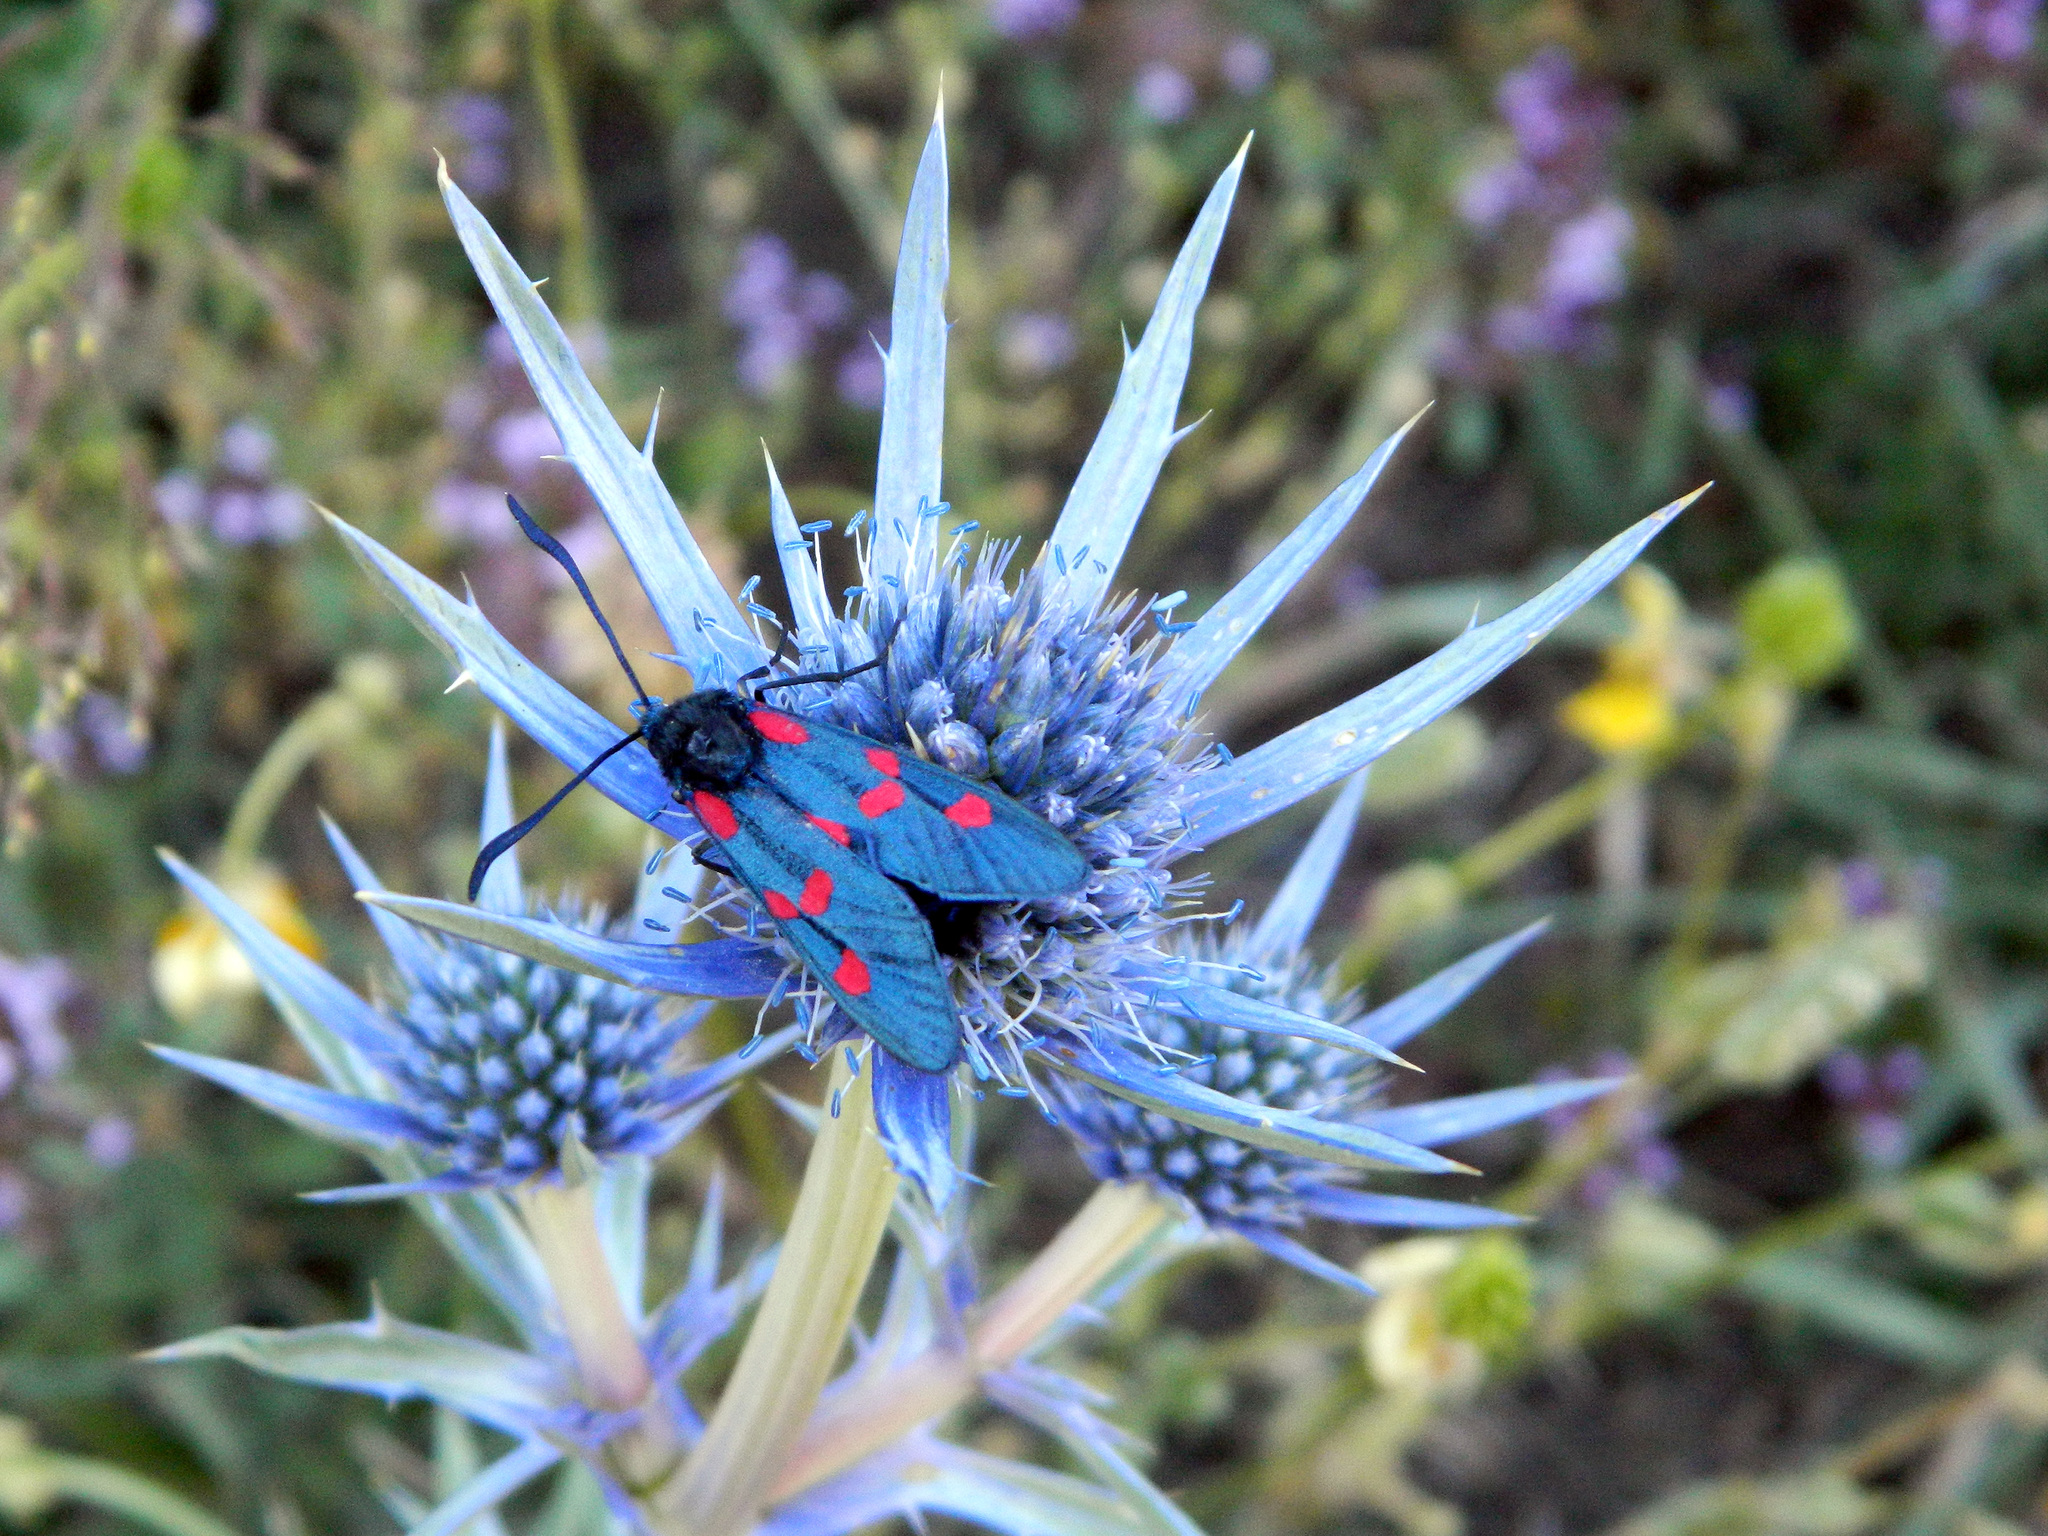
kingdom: Animalia
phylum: Arthropoda
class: Insecta
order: Lepidoptera
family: Zygaenidae
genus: Zygaena
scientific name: Zygaena filipendulae
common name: Six-spot burnet
